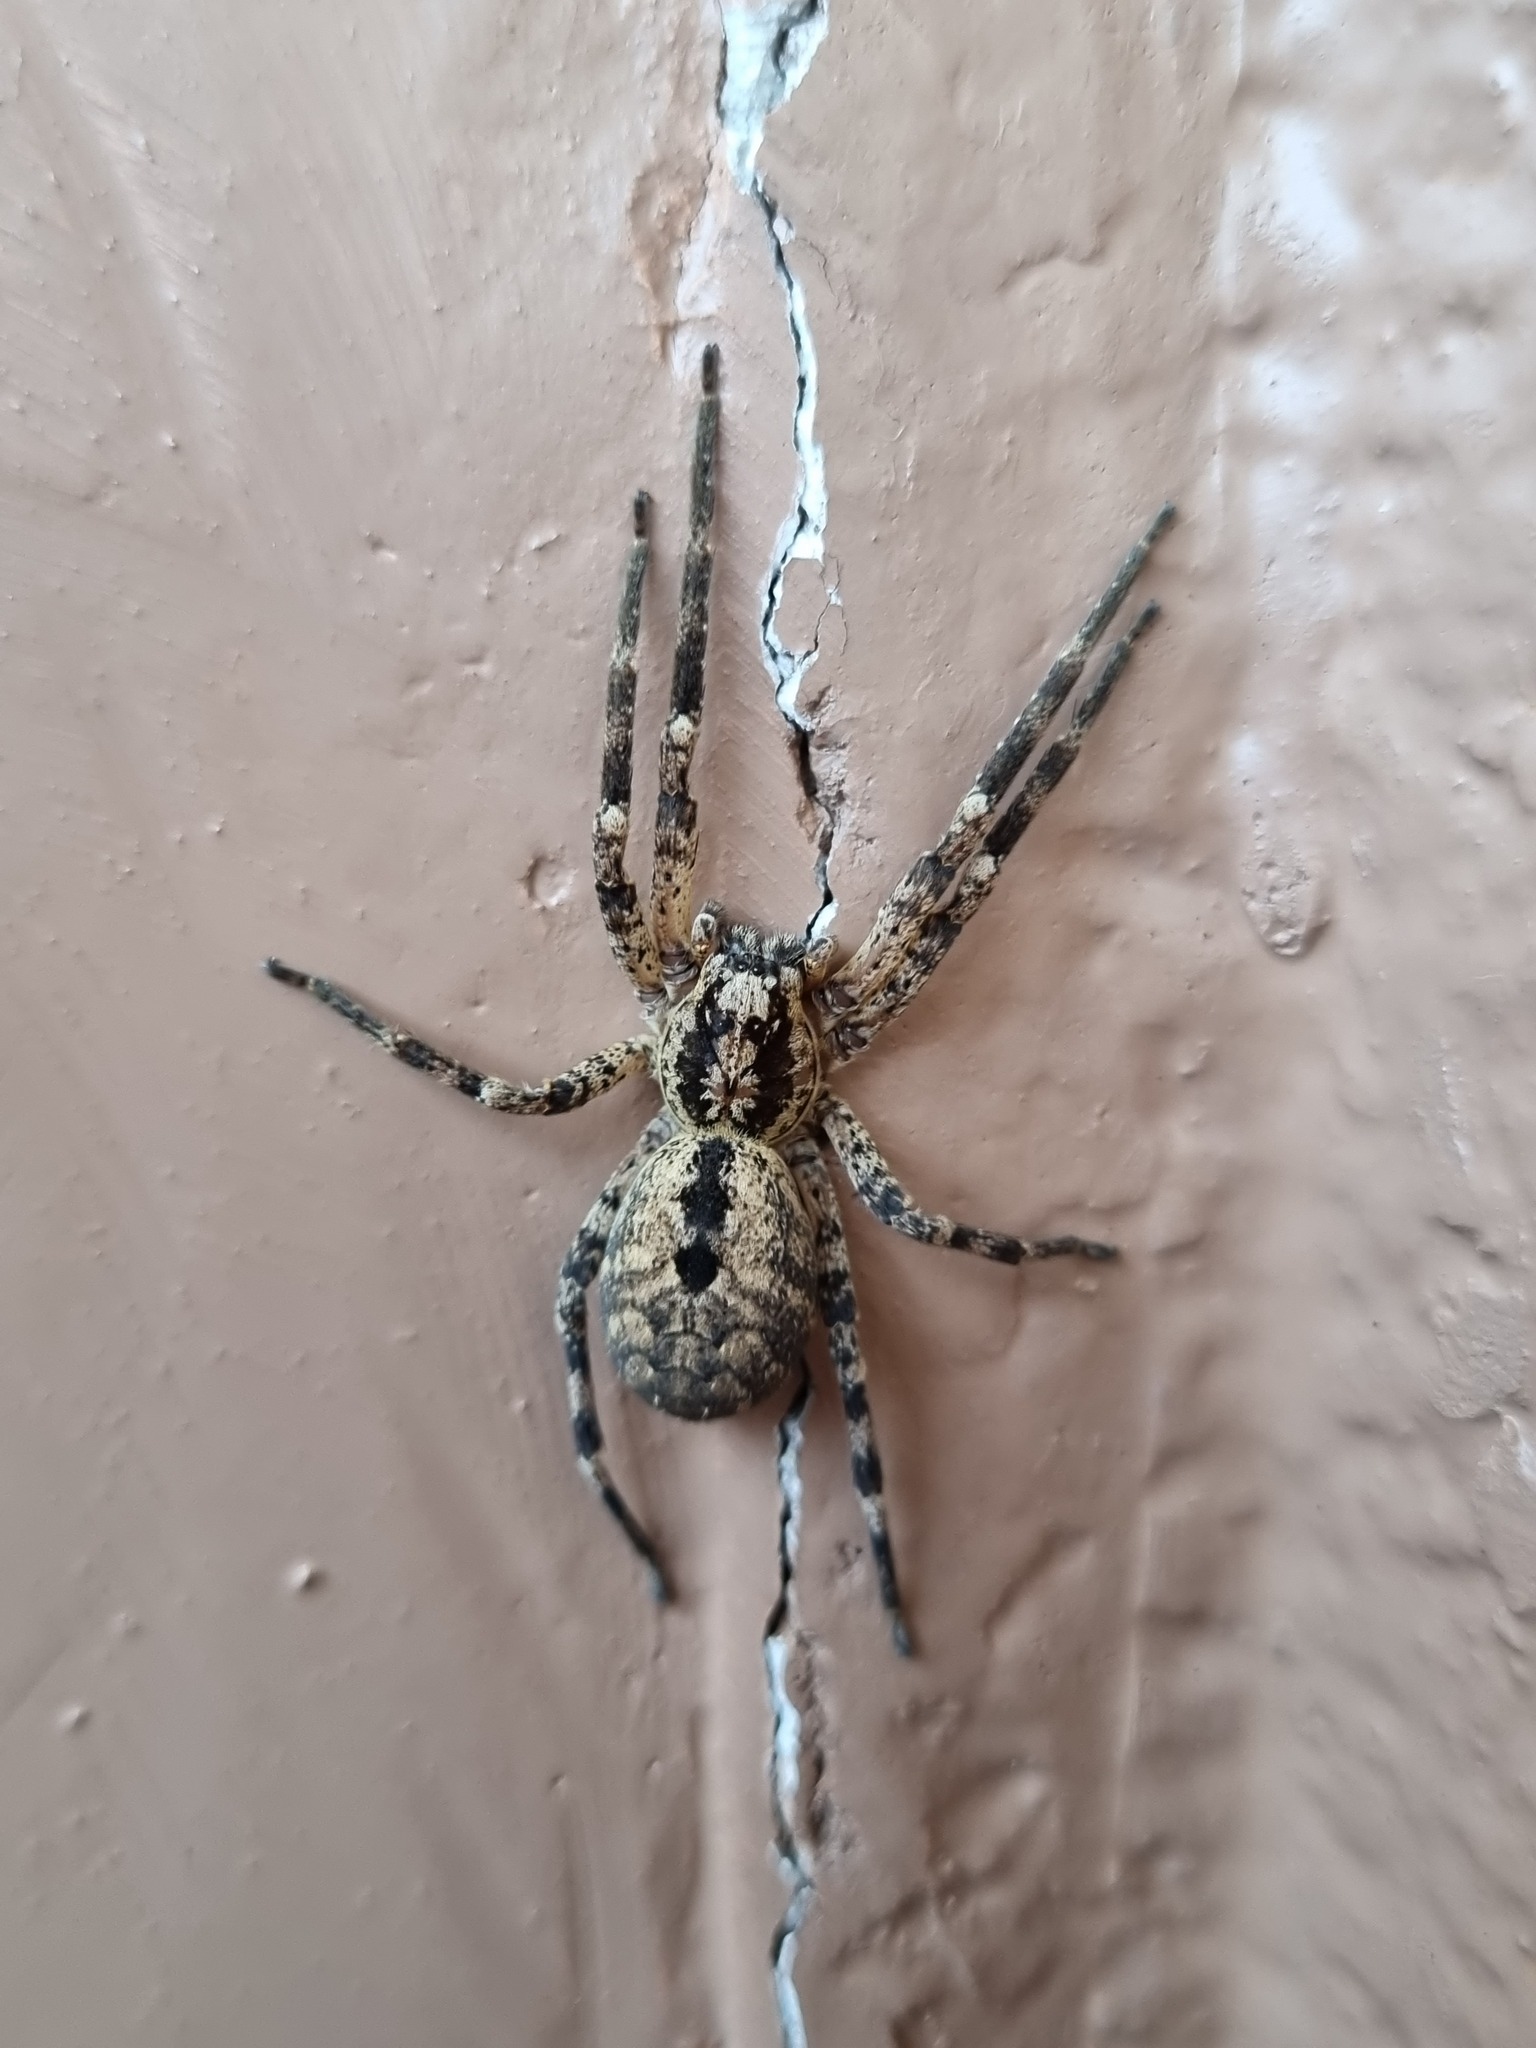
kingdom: Animalia
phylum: Arthropoda
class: Arachnida
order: Araneae
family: Zoropsidae
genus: Zoropsis
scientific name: Zoropsis spinimana
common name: Zoropsid spider
